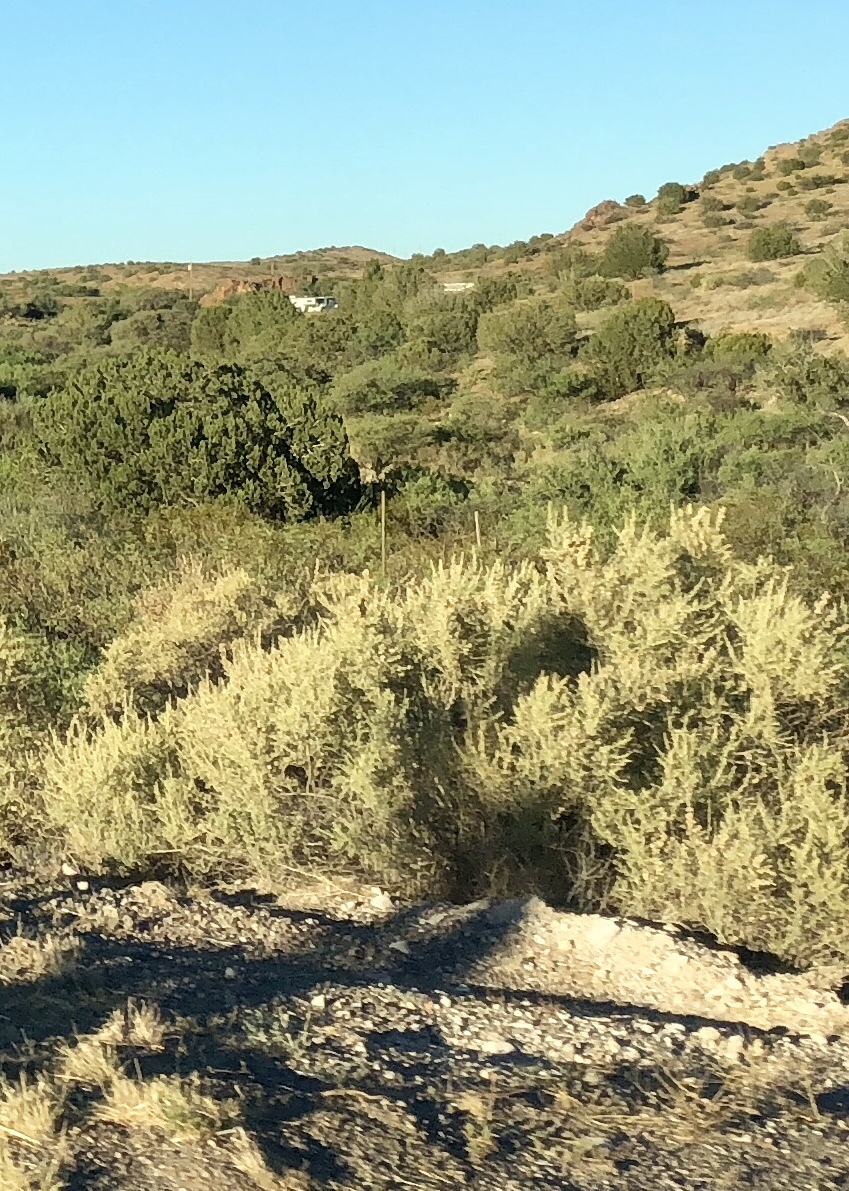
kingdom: Plantae
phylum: Tracheophyta
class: Magnoliopsida
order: Caryophyllales
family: Amaranthaceae
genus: Atriplex
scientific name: Atriplex canescens
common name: Four-wing saltbush
